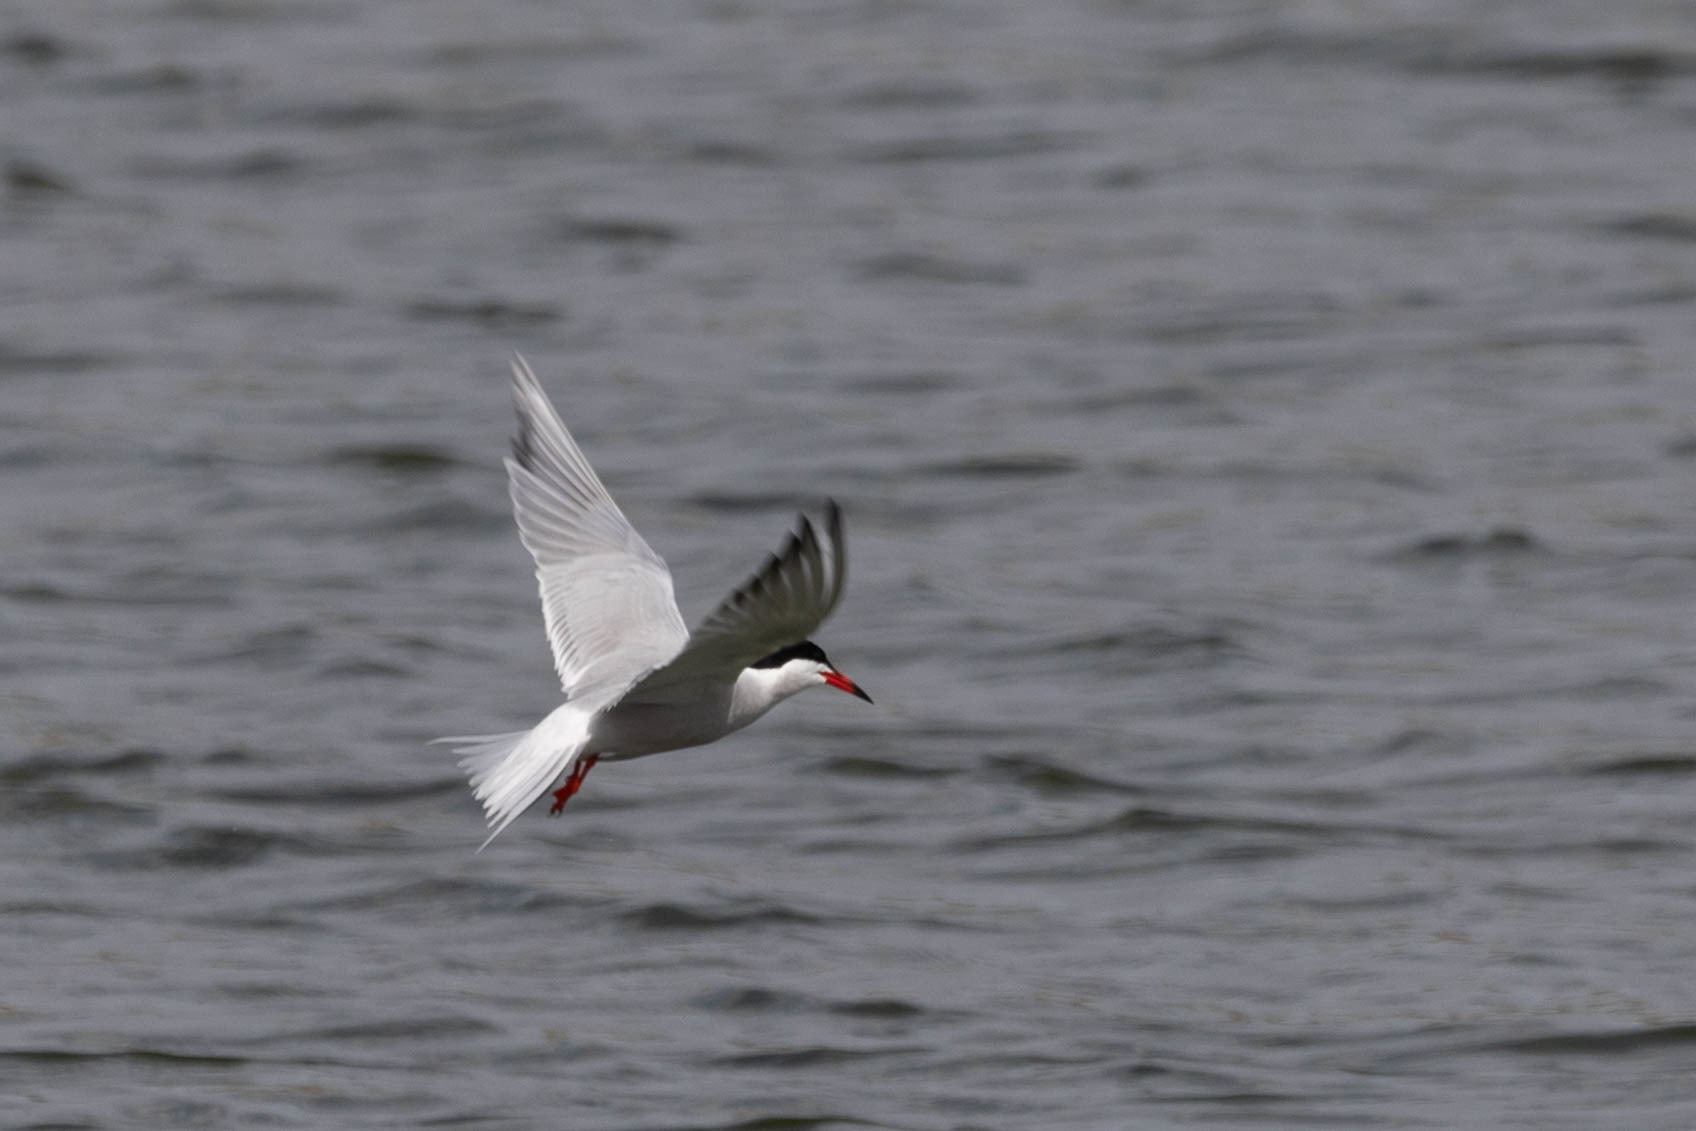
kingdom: Animalia
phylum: Chordata
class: Aves
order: Charadriiformes
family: Laridae
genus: Sterna
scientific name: Sterna hirundo
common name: Common tern
